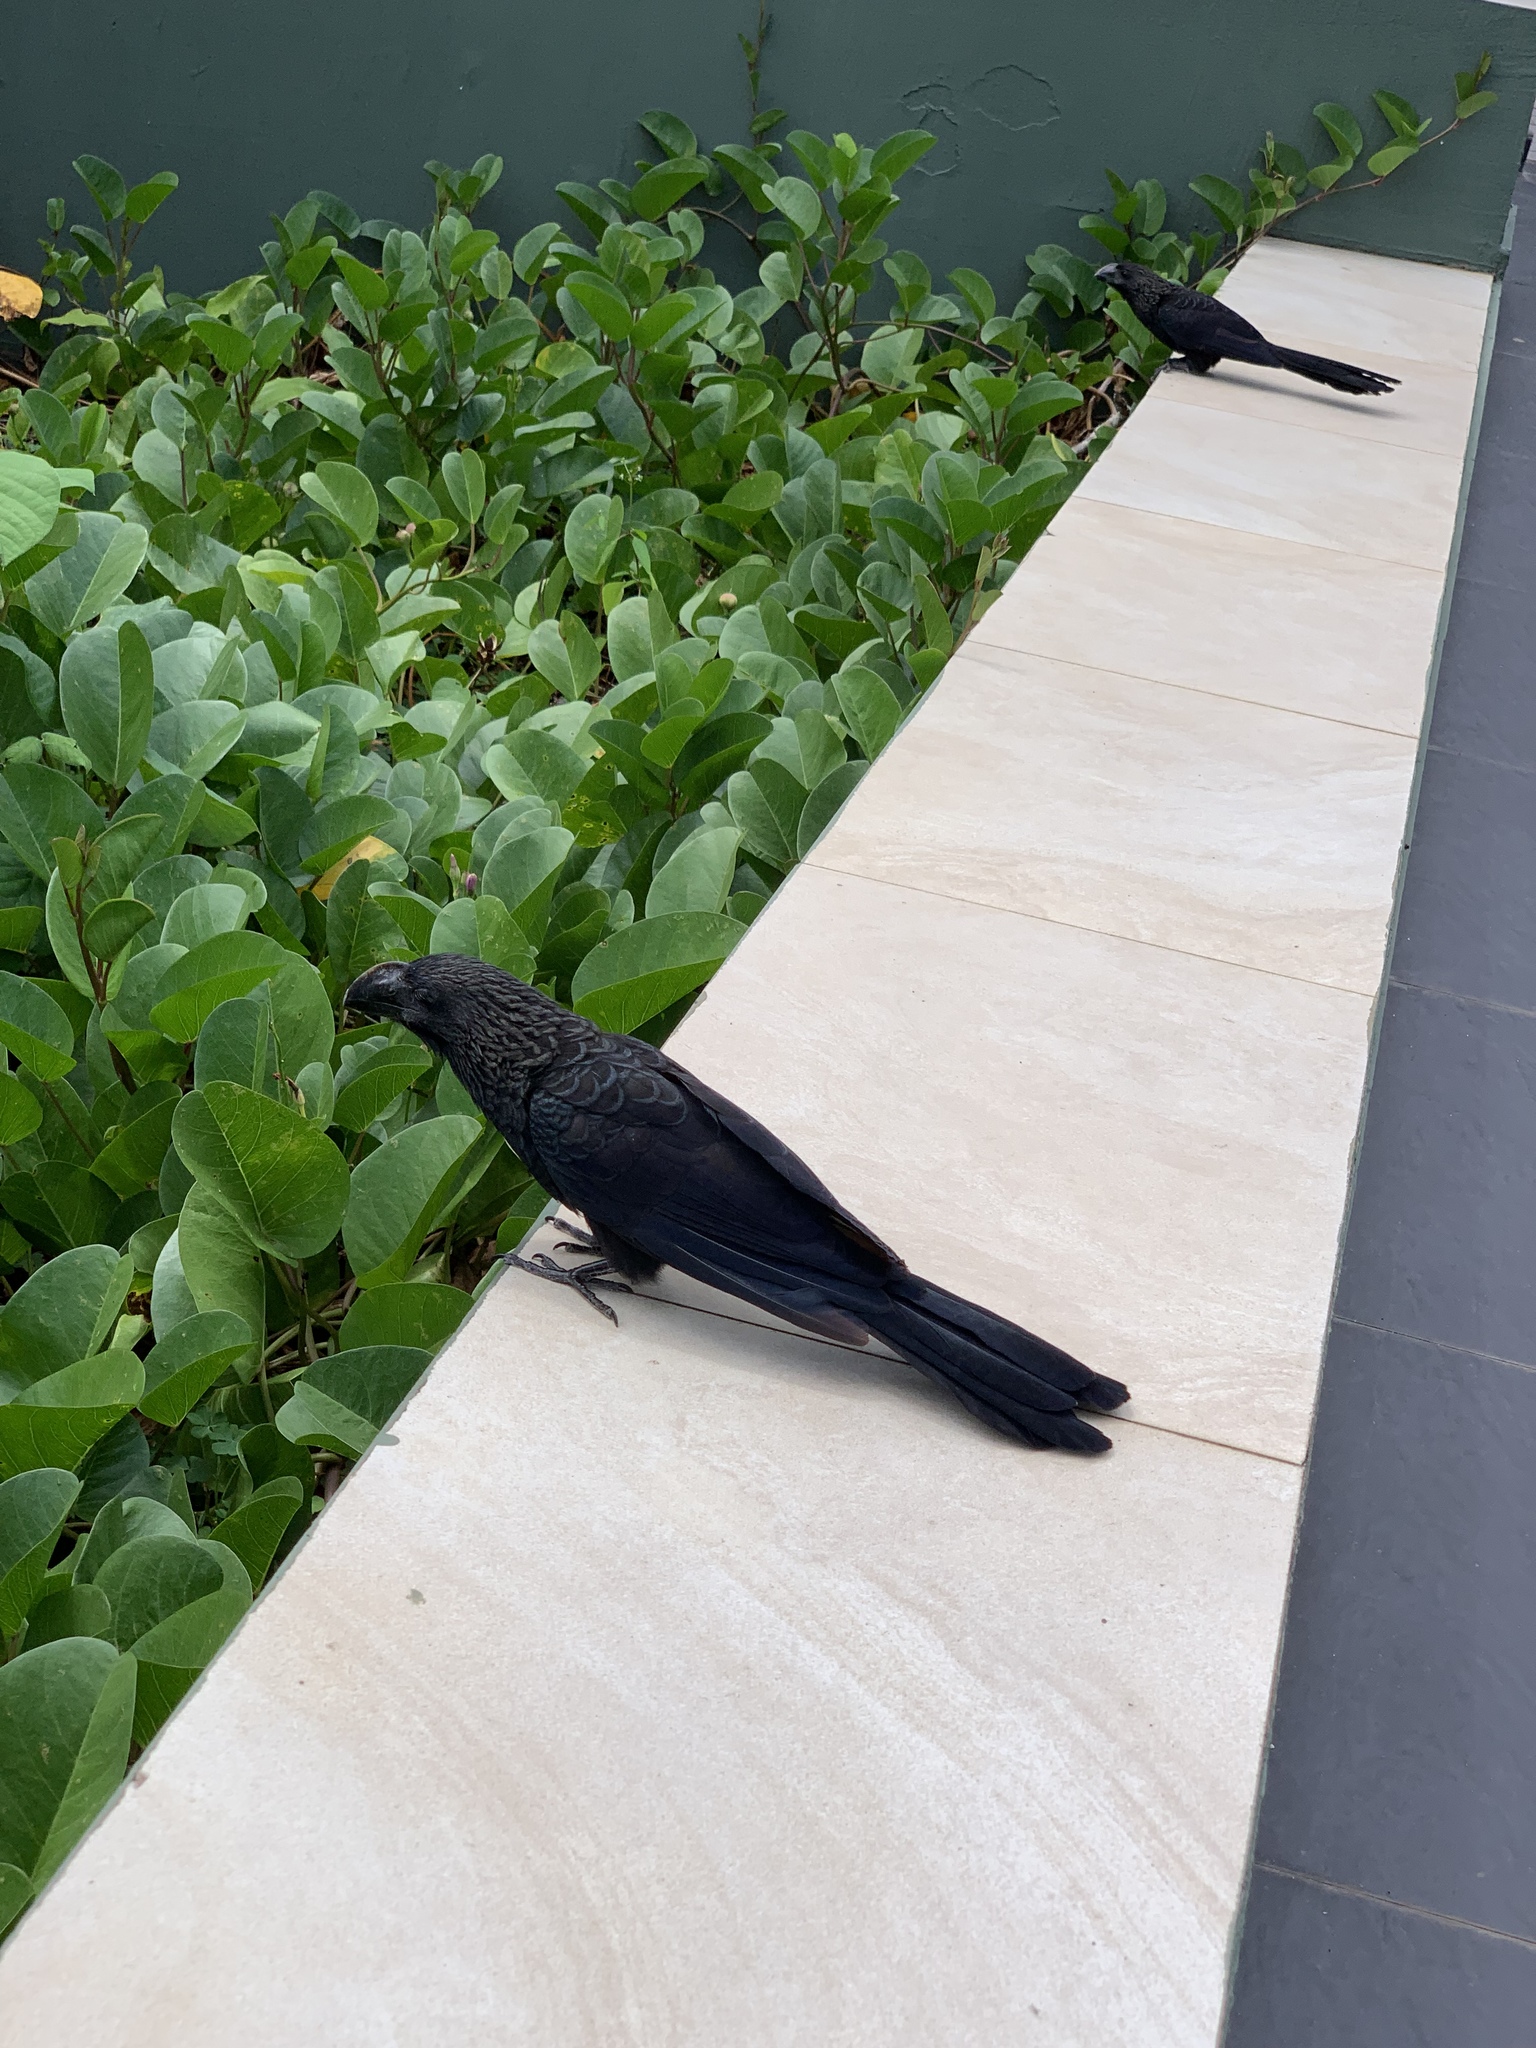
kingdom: Animalia
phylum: Chordata
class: Aves
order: Cuculiformes
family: Cuculidae
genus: Crotophaga
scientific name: Crotophaga ani
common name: Smooth-billed ani
